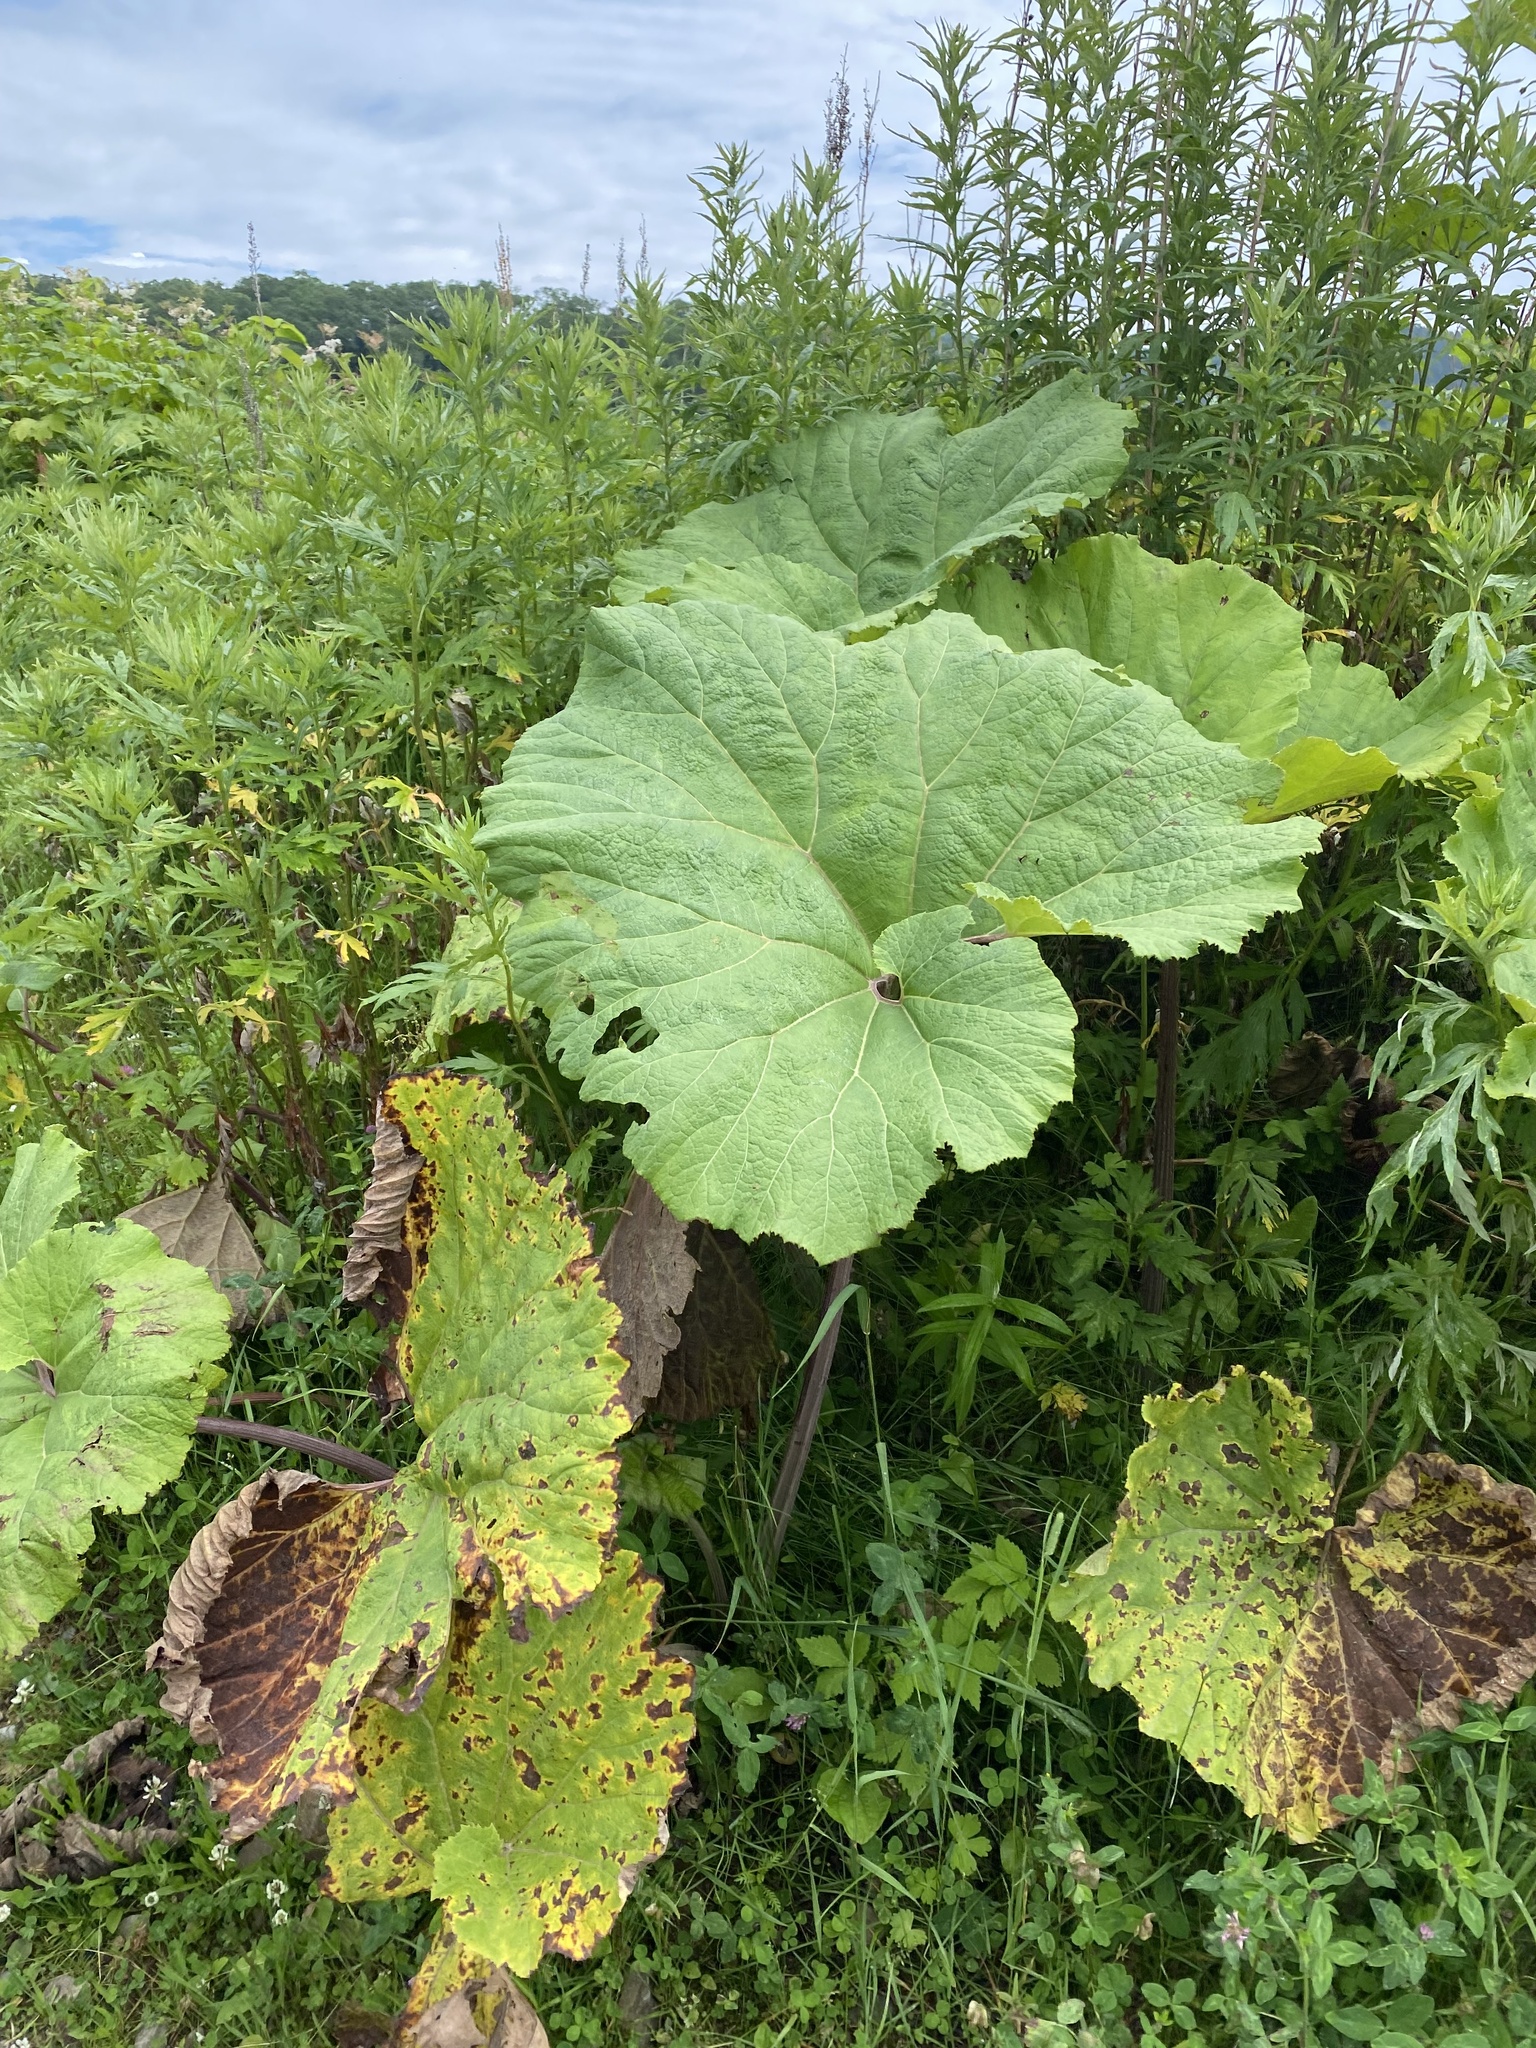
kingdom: Plantae
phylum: Tracheophyta
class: Magnoliopsida
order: Asterales
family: Asteraceae
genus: Petasites
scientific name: Petasites japonicus
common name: Giant butterbur
